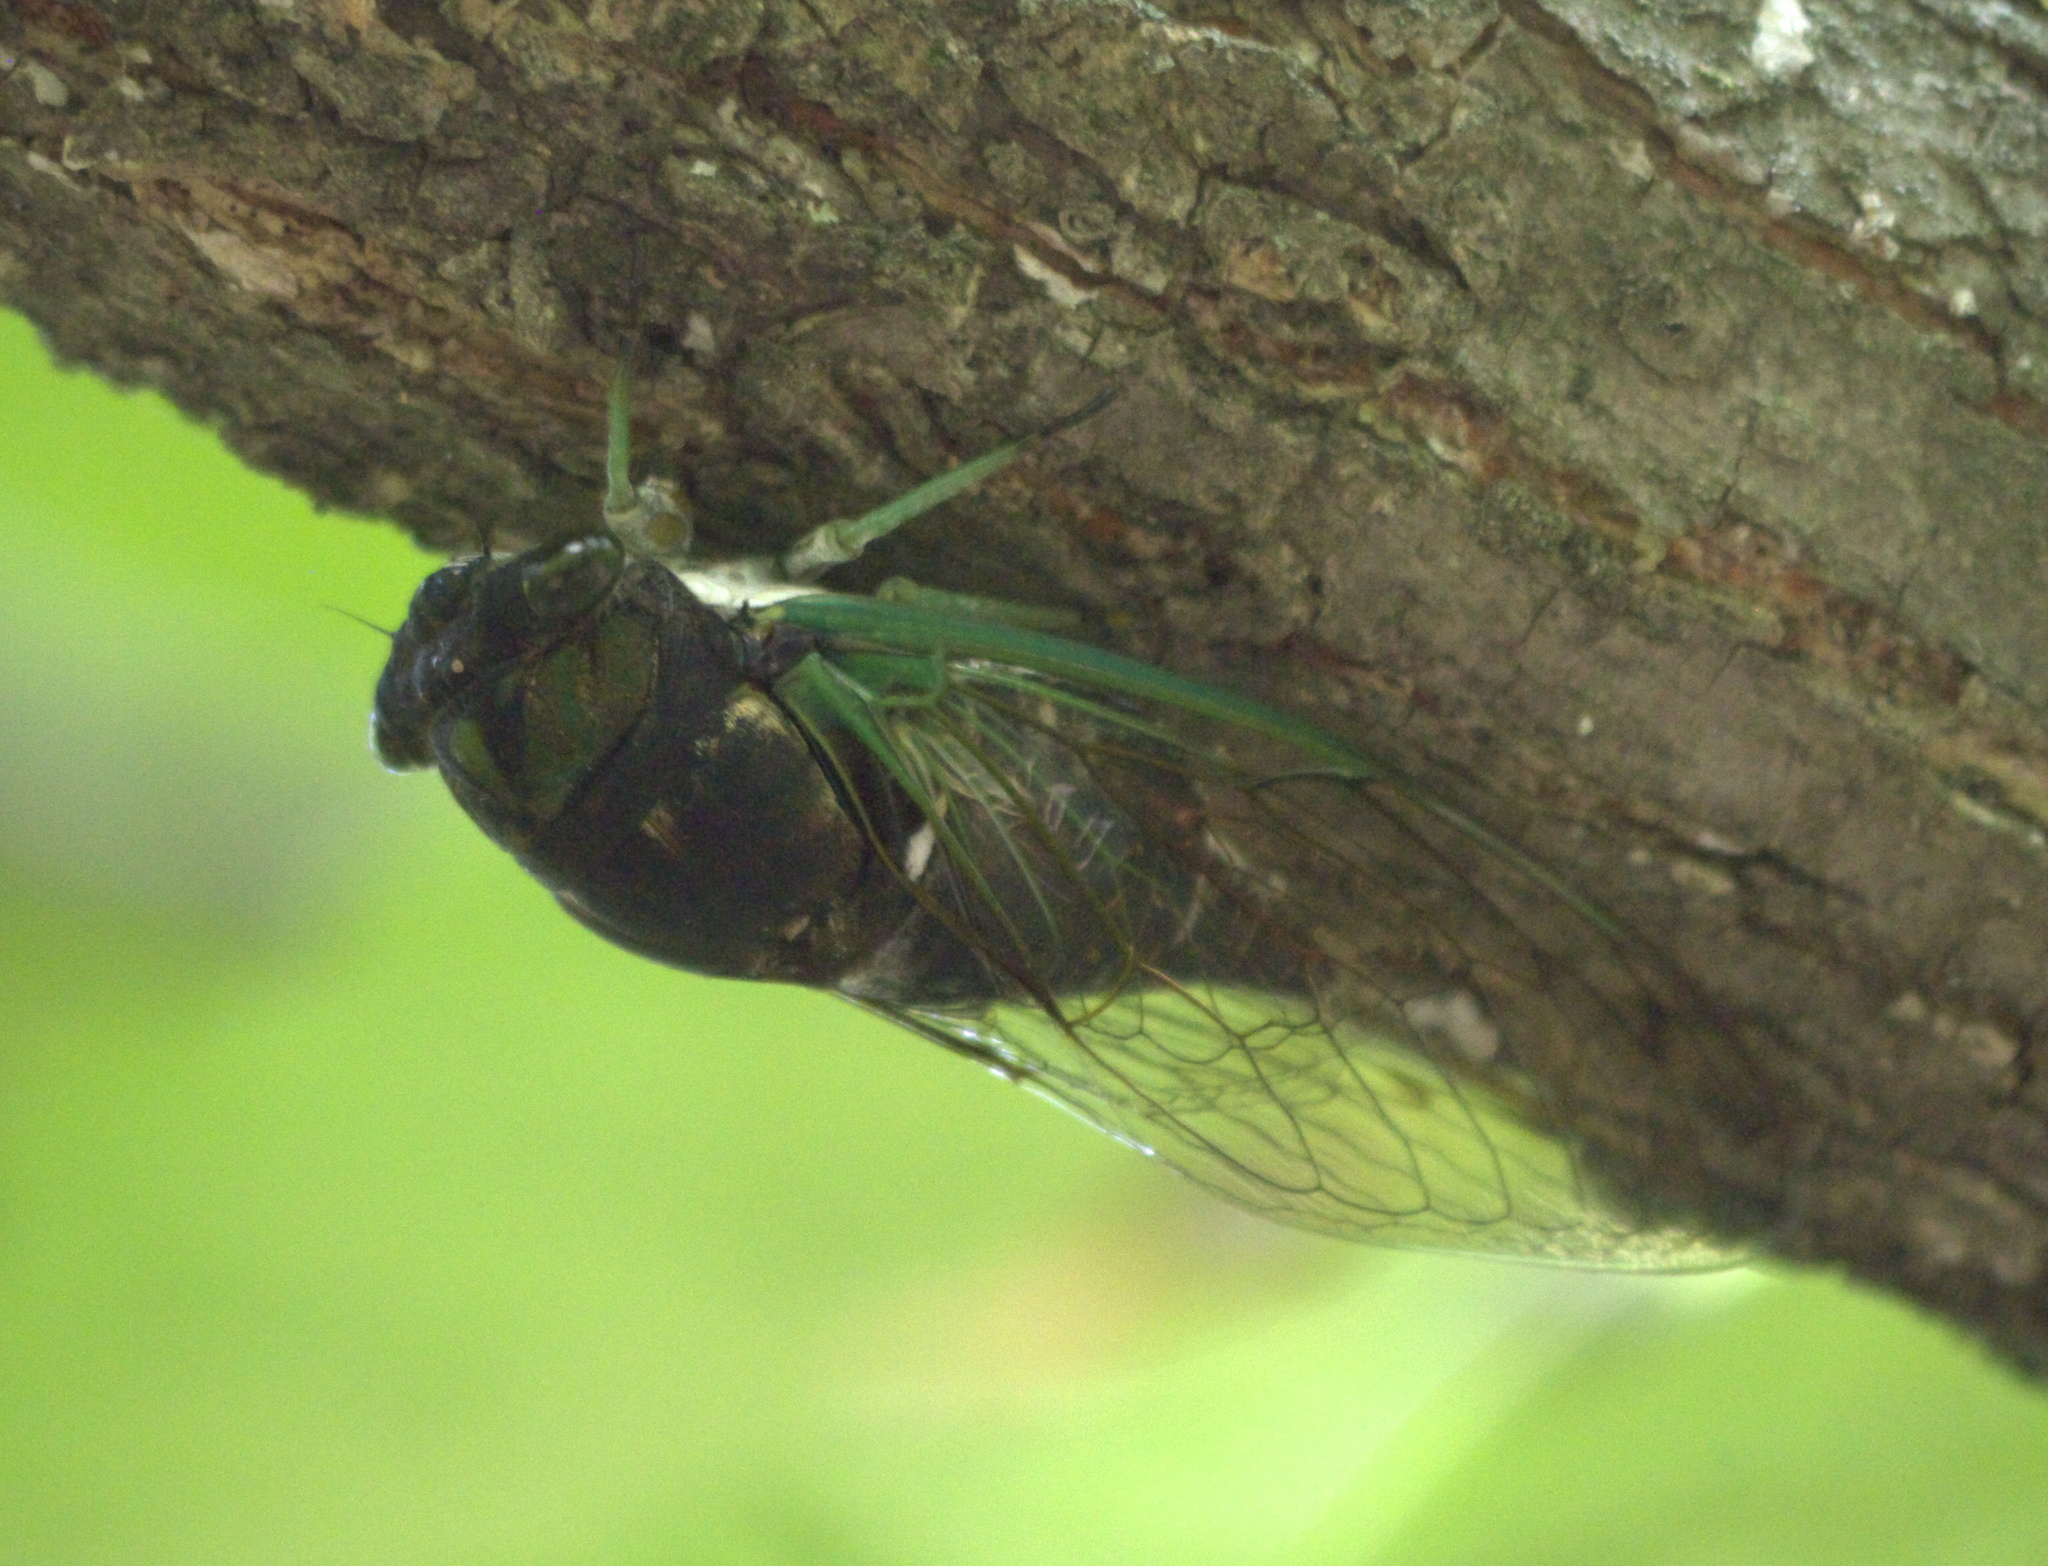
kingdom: Animalia
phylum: Arthropoda
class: Insecta
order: Hemiptera
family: Cicadidae
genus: Neotibicen
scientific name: Neotibicen tibicen
